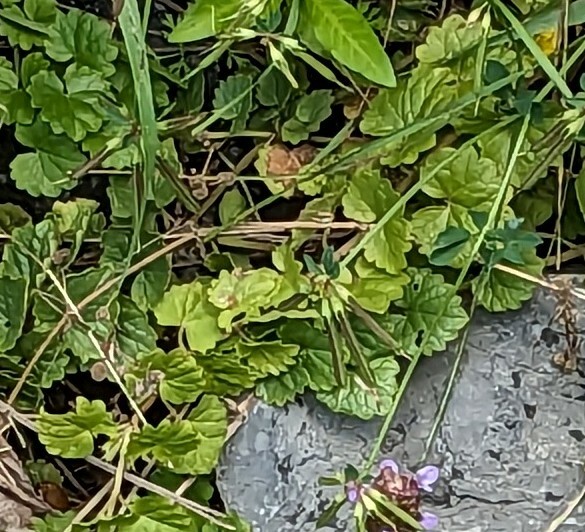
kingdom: Plantae
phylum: Tracheophyta
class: Magnoliopsida
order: Lamiales
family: Lamiaceae
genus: Glechoma
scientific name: Glechoma hederacea
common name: Ground ivy
